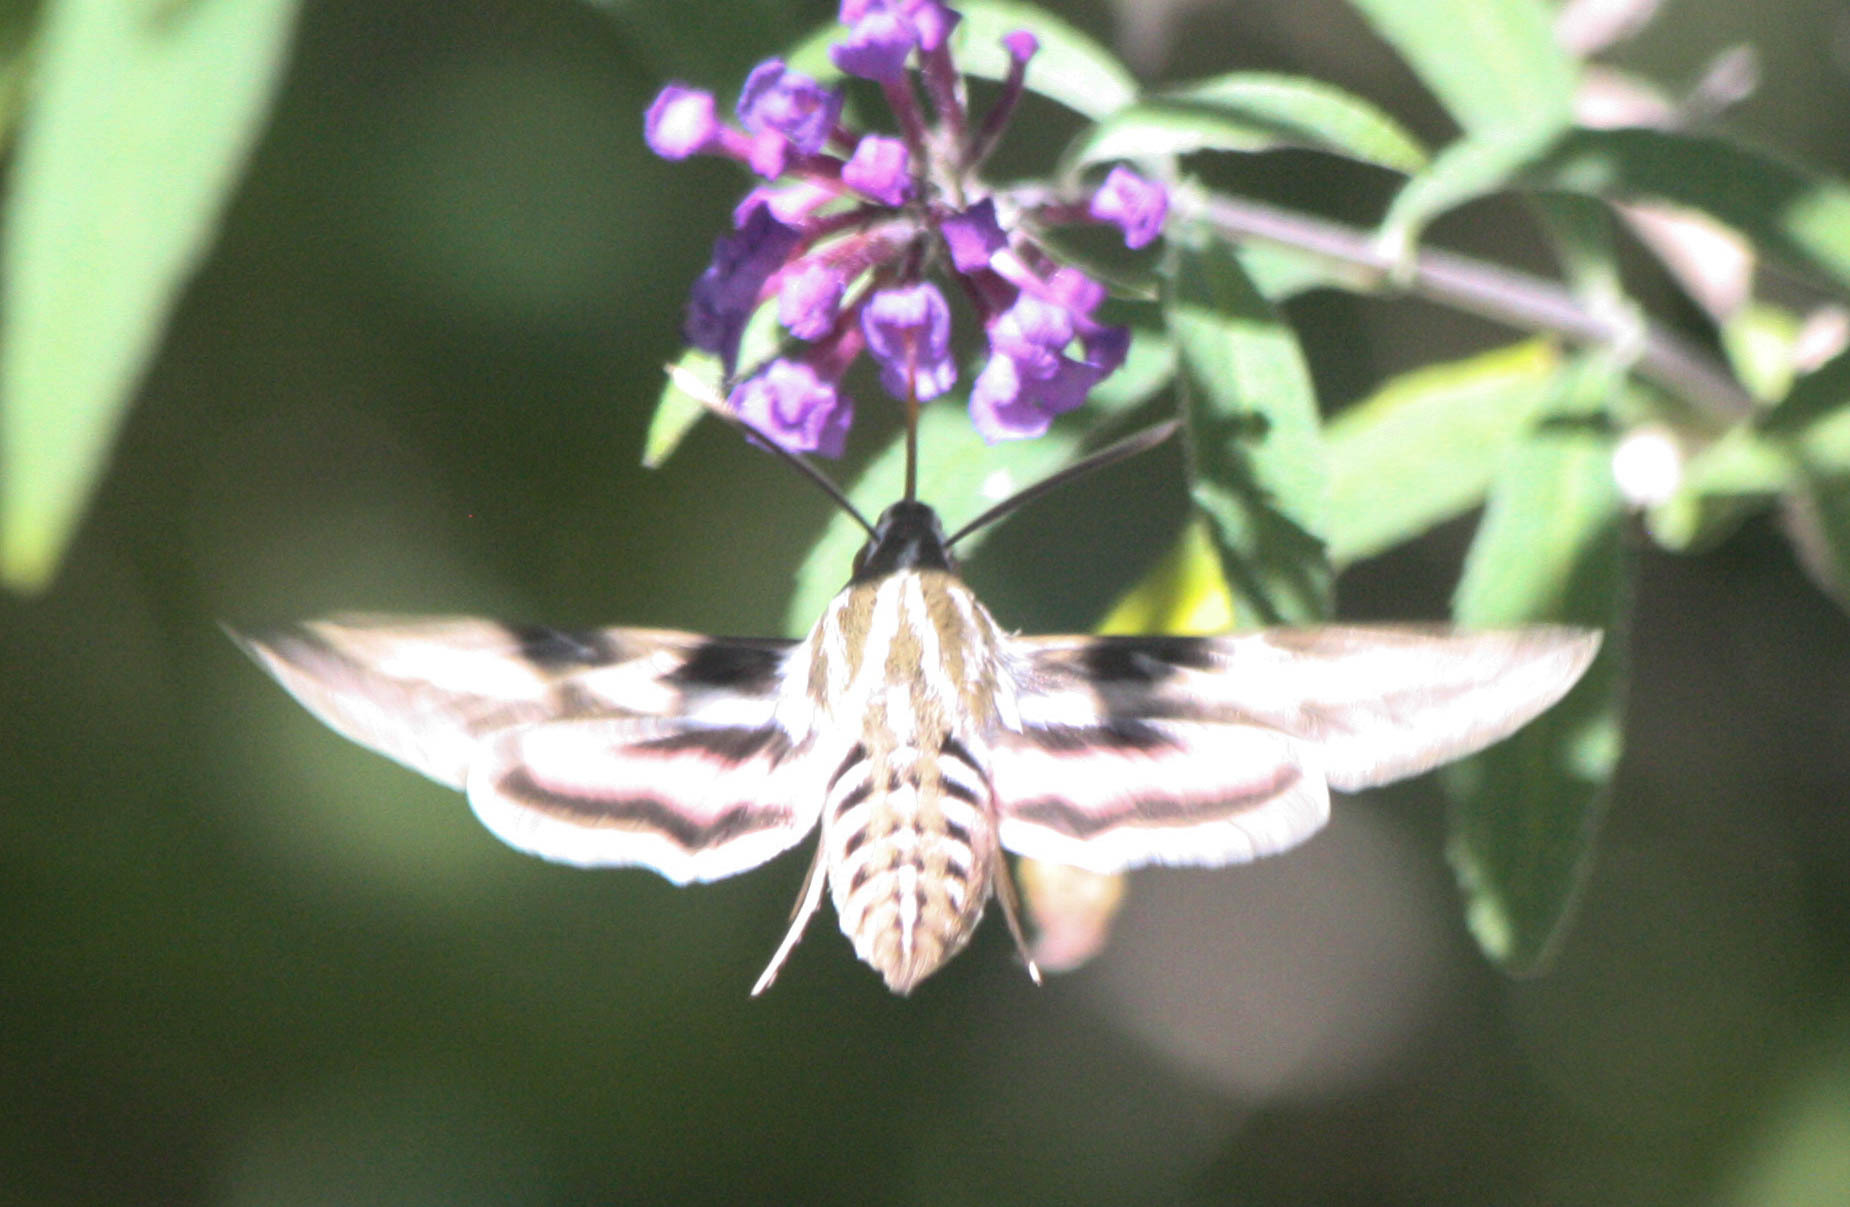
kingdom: Animalia
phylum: Arthropoda
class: Insecta
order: Lepidoptera
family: Sphingidae
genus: Hyles
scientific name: Hyles lineata
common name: White-lined sphinx
